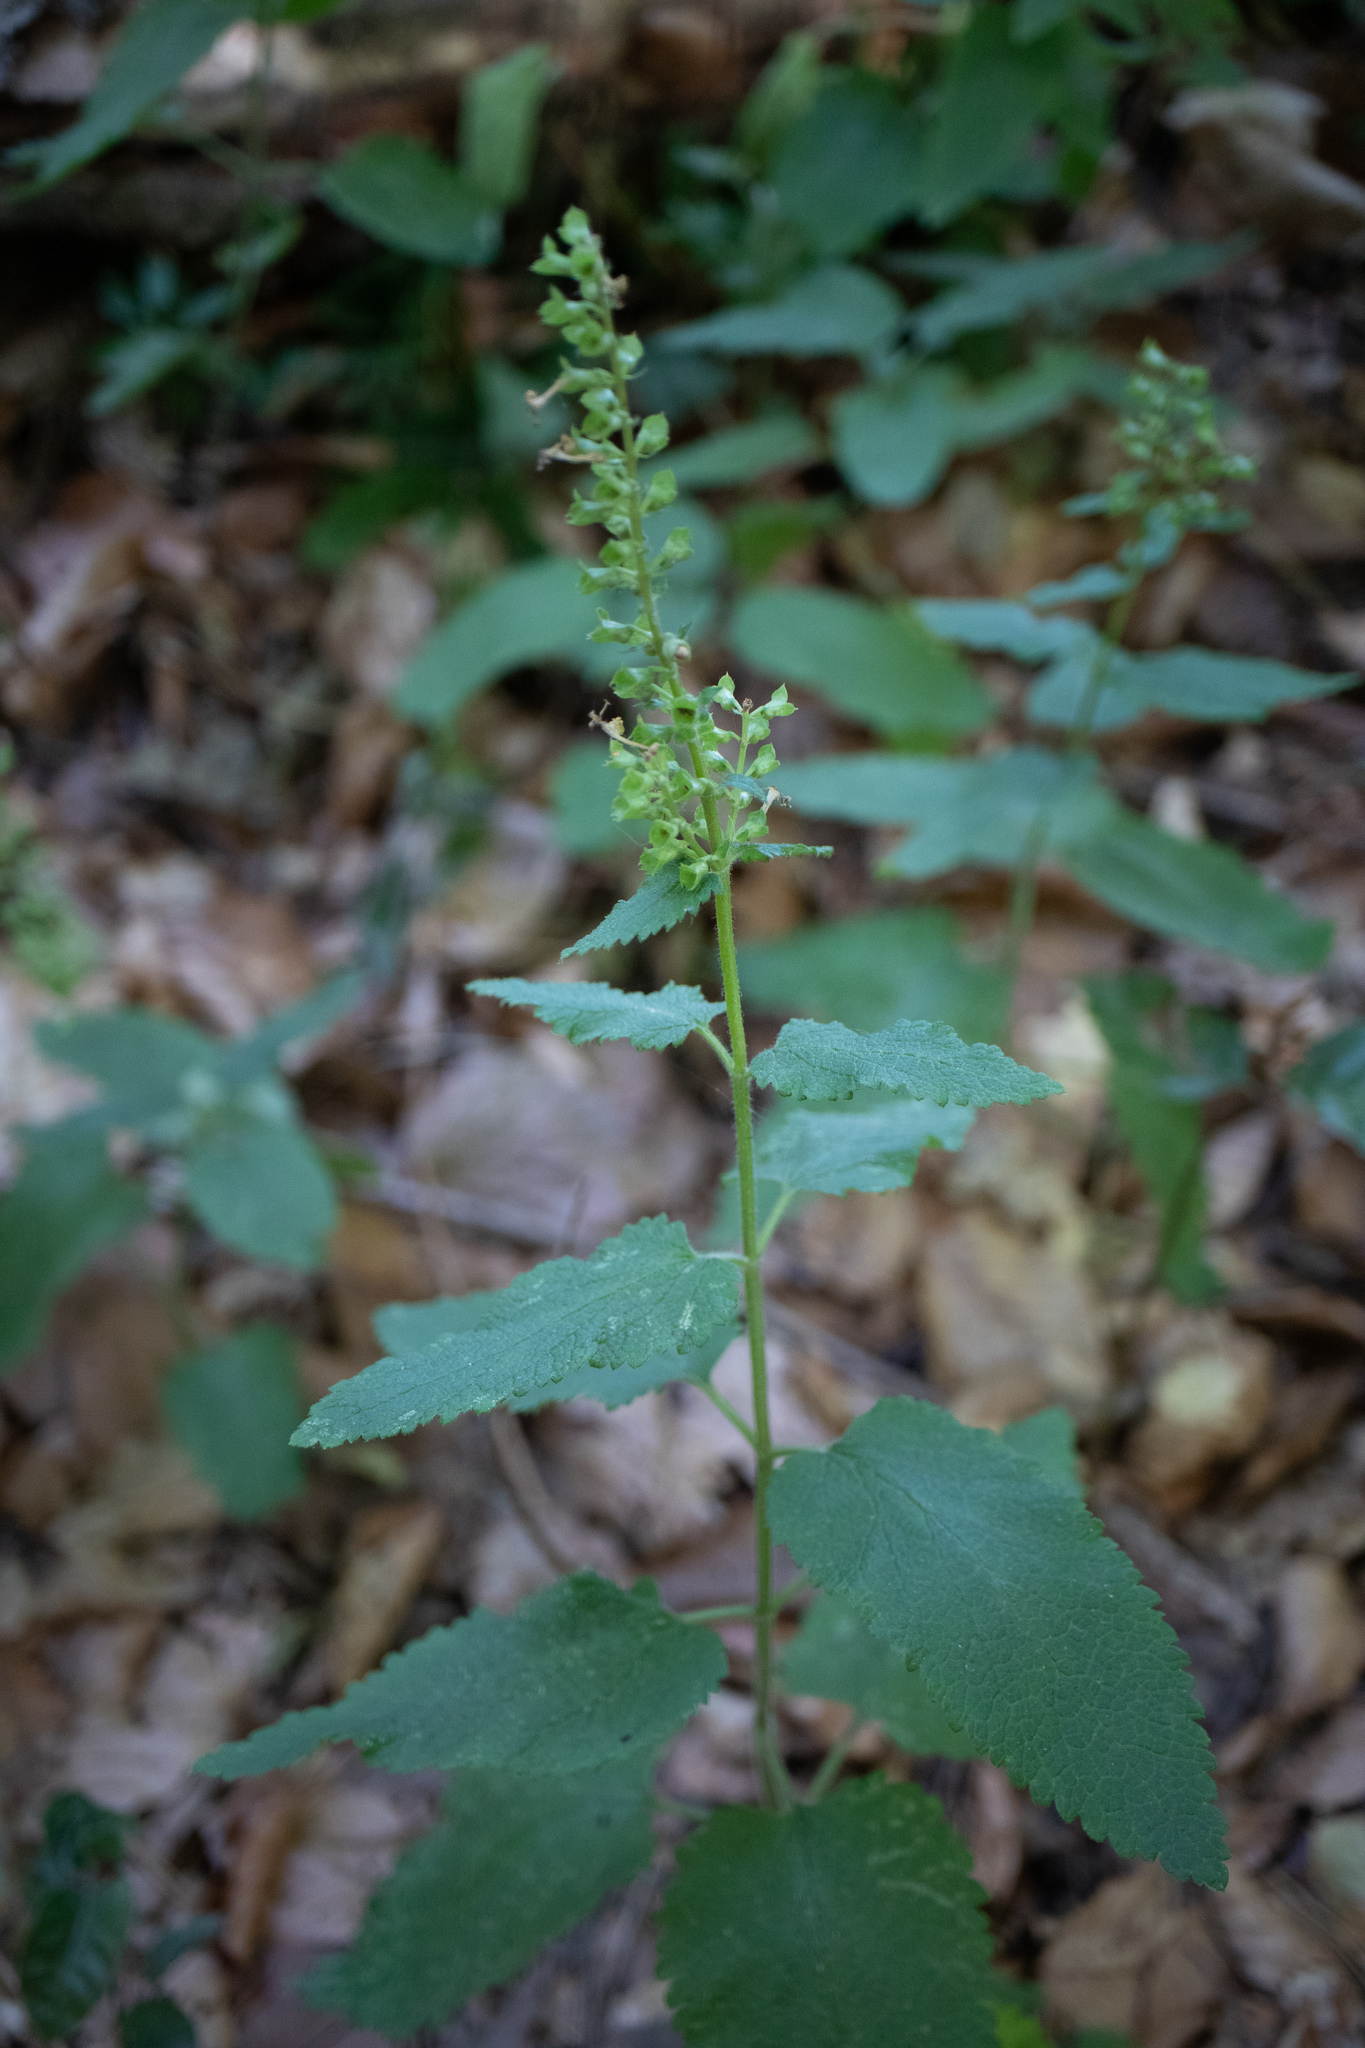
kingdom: Plantae
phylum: Tracheophyta
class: Magnoliopsida
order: Lamiales
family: Lamiaceae
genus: Teucrium
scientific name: Teucrium scorodonia
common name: Woodland germander
